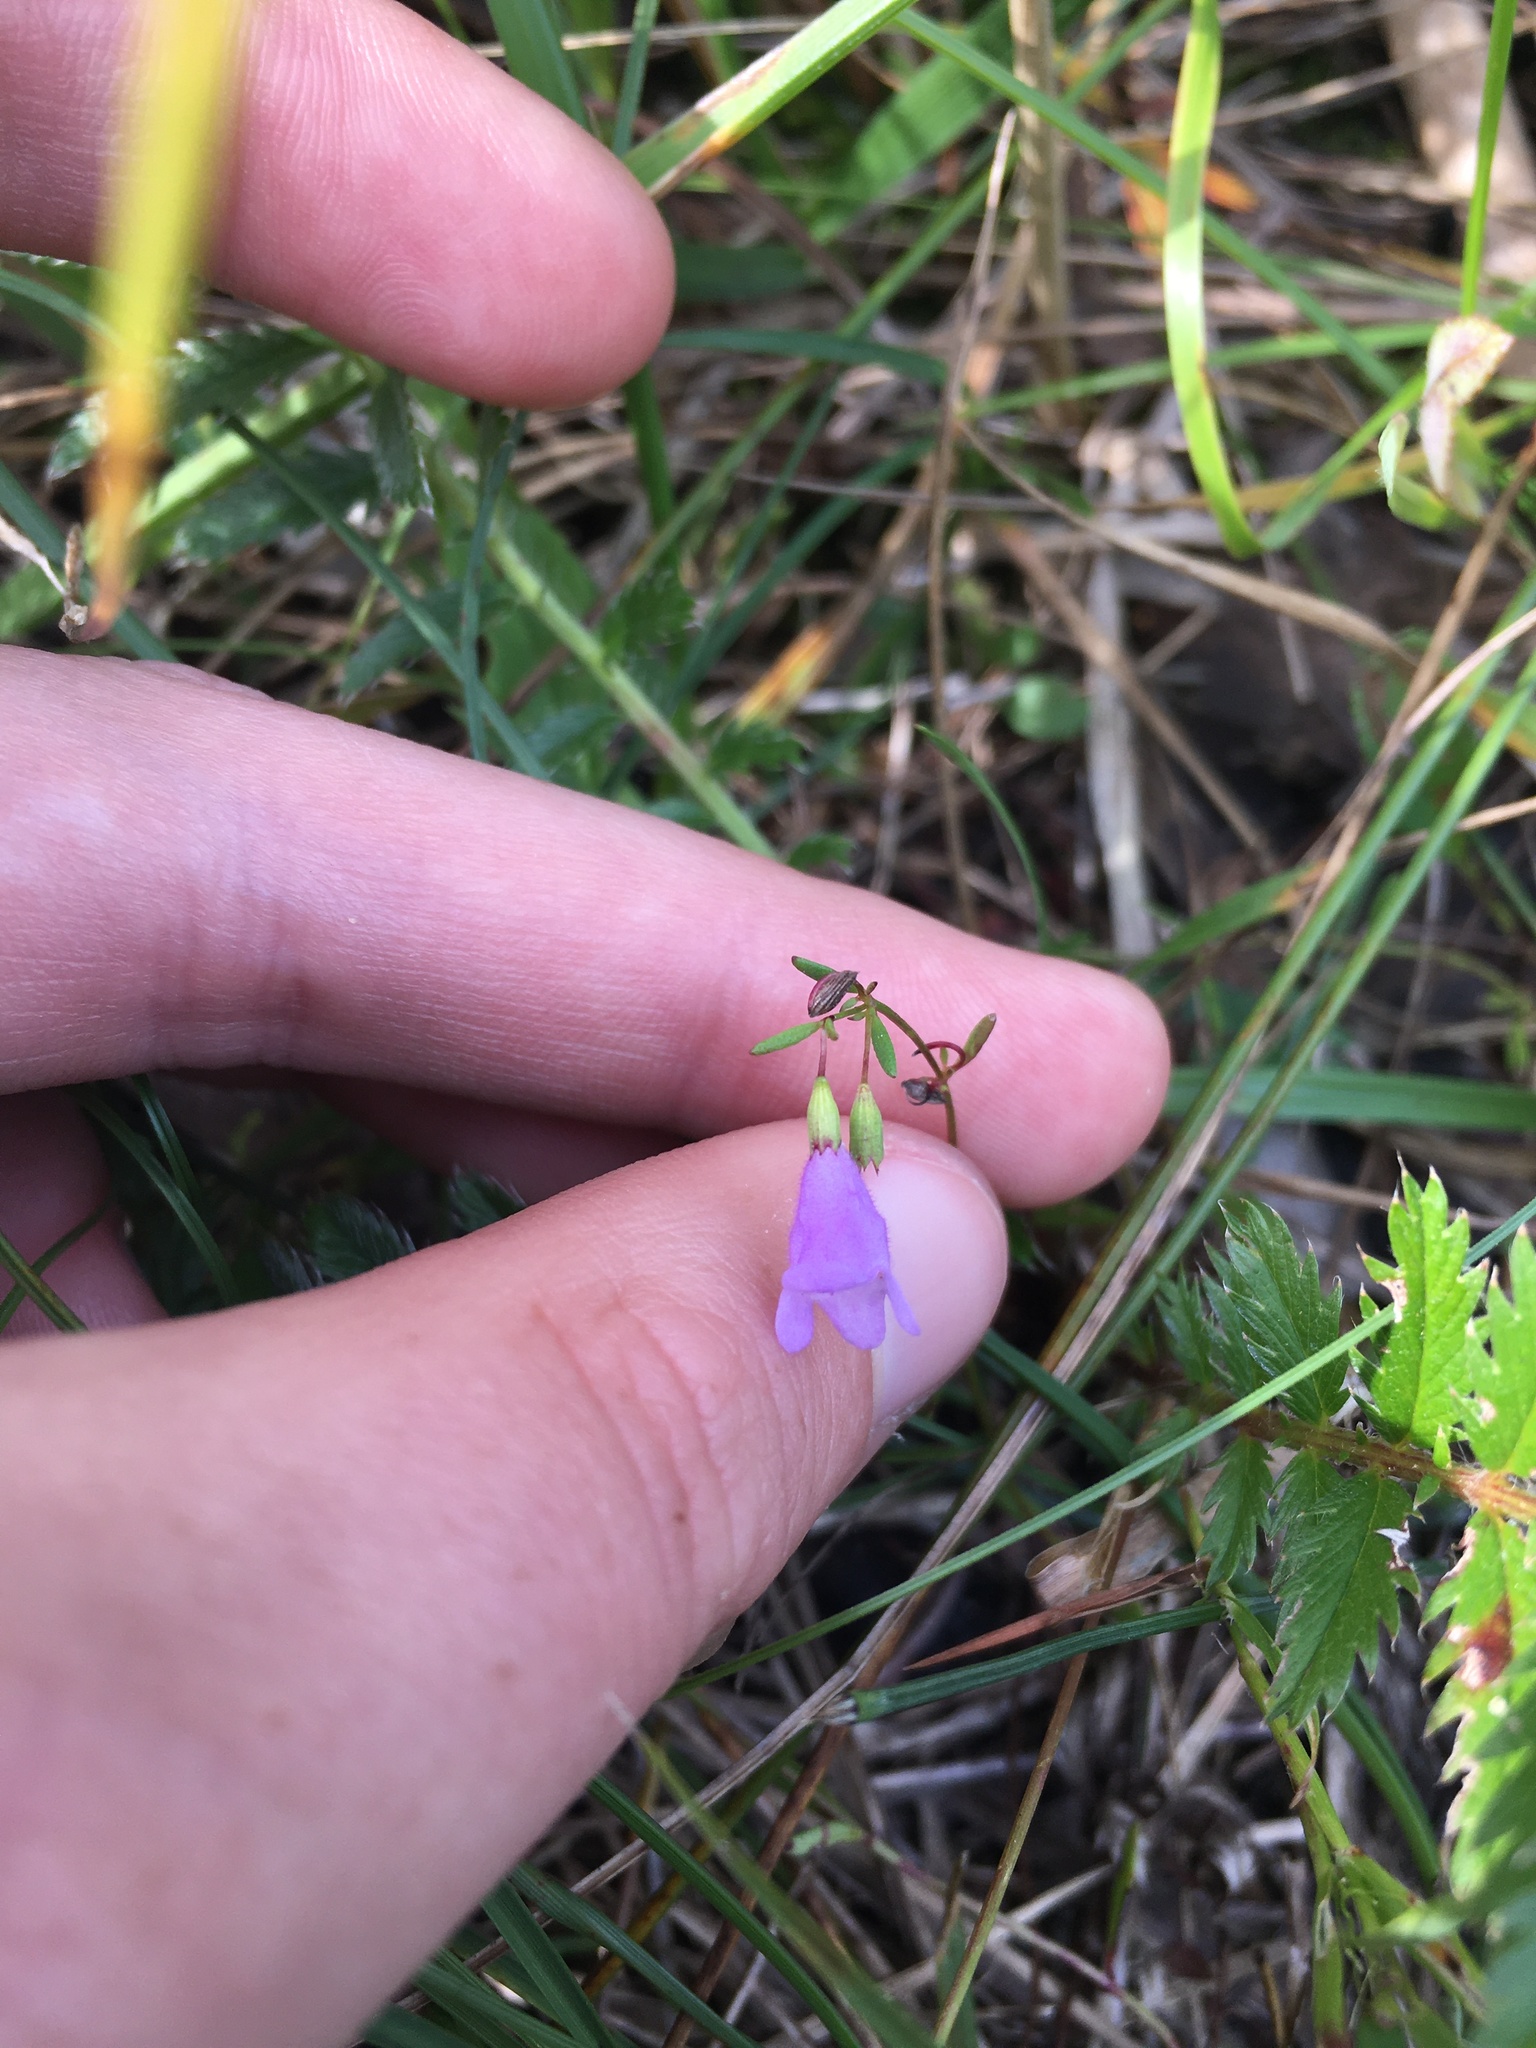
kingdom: Plantae
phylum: Tracheophyta
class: Magnoliopsida
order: Lamiales
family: Lamiaceae
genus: Clinopodium
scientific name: Clinopodium arkansanum
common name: Limestone calamint
